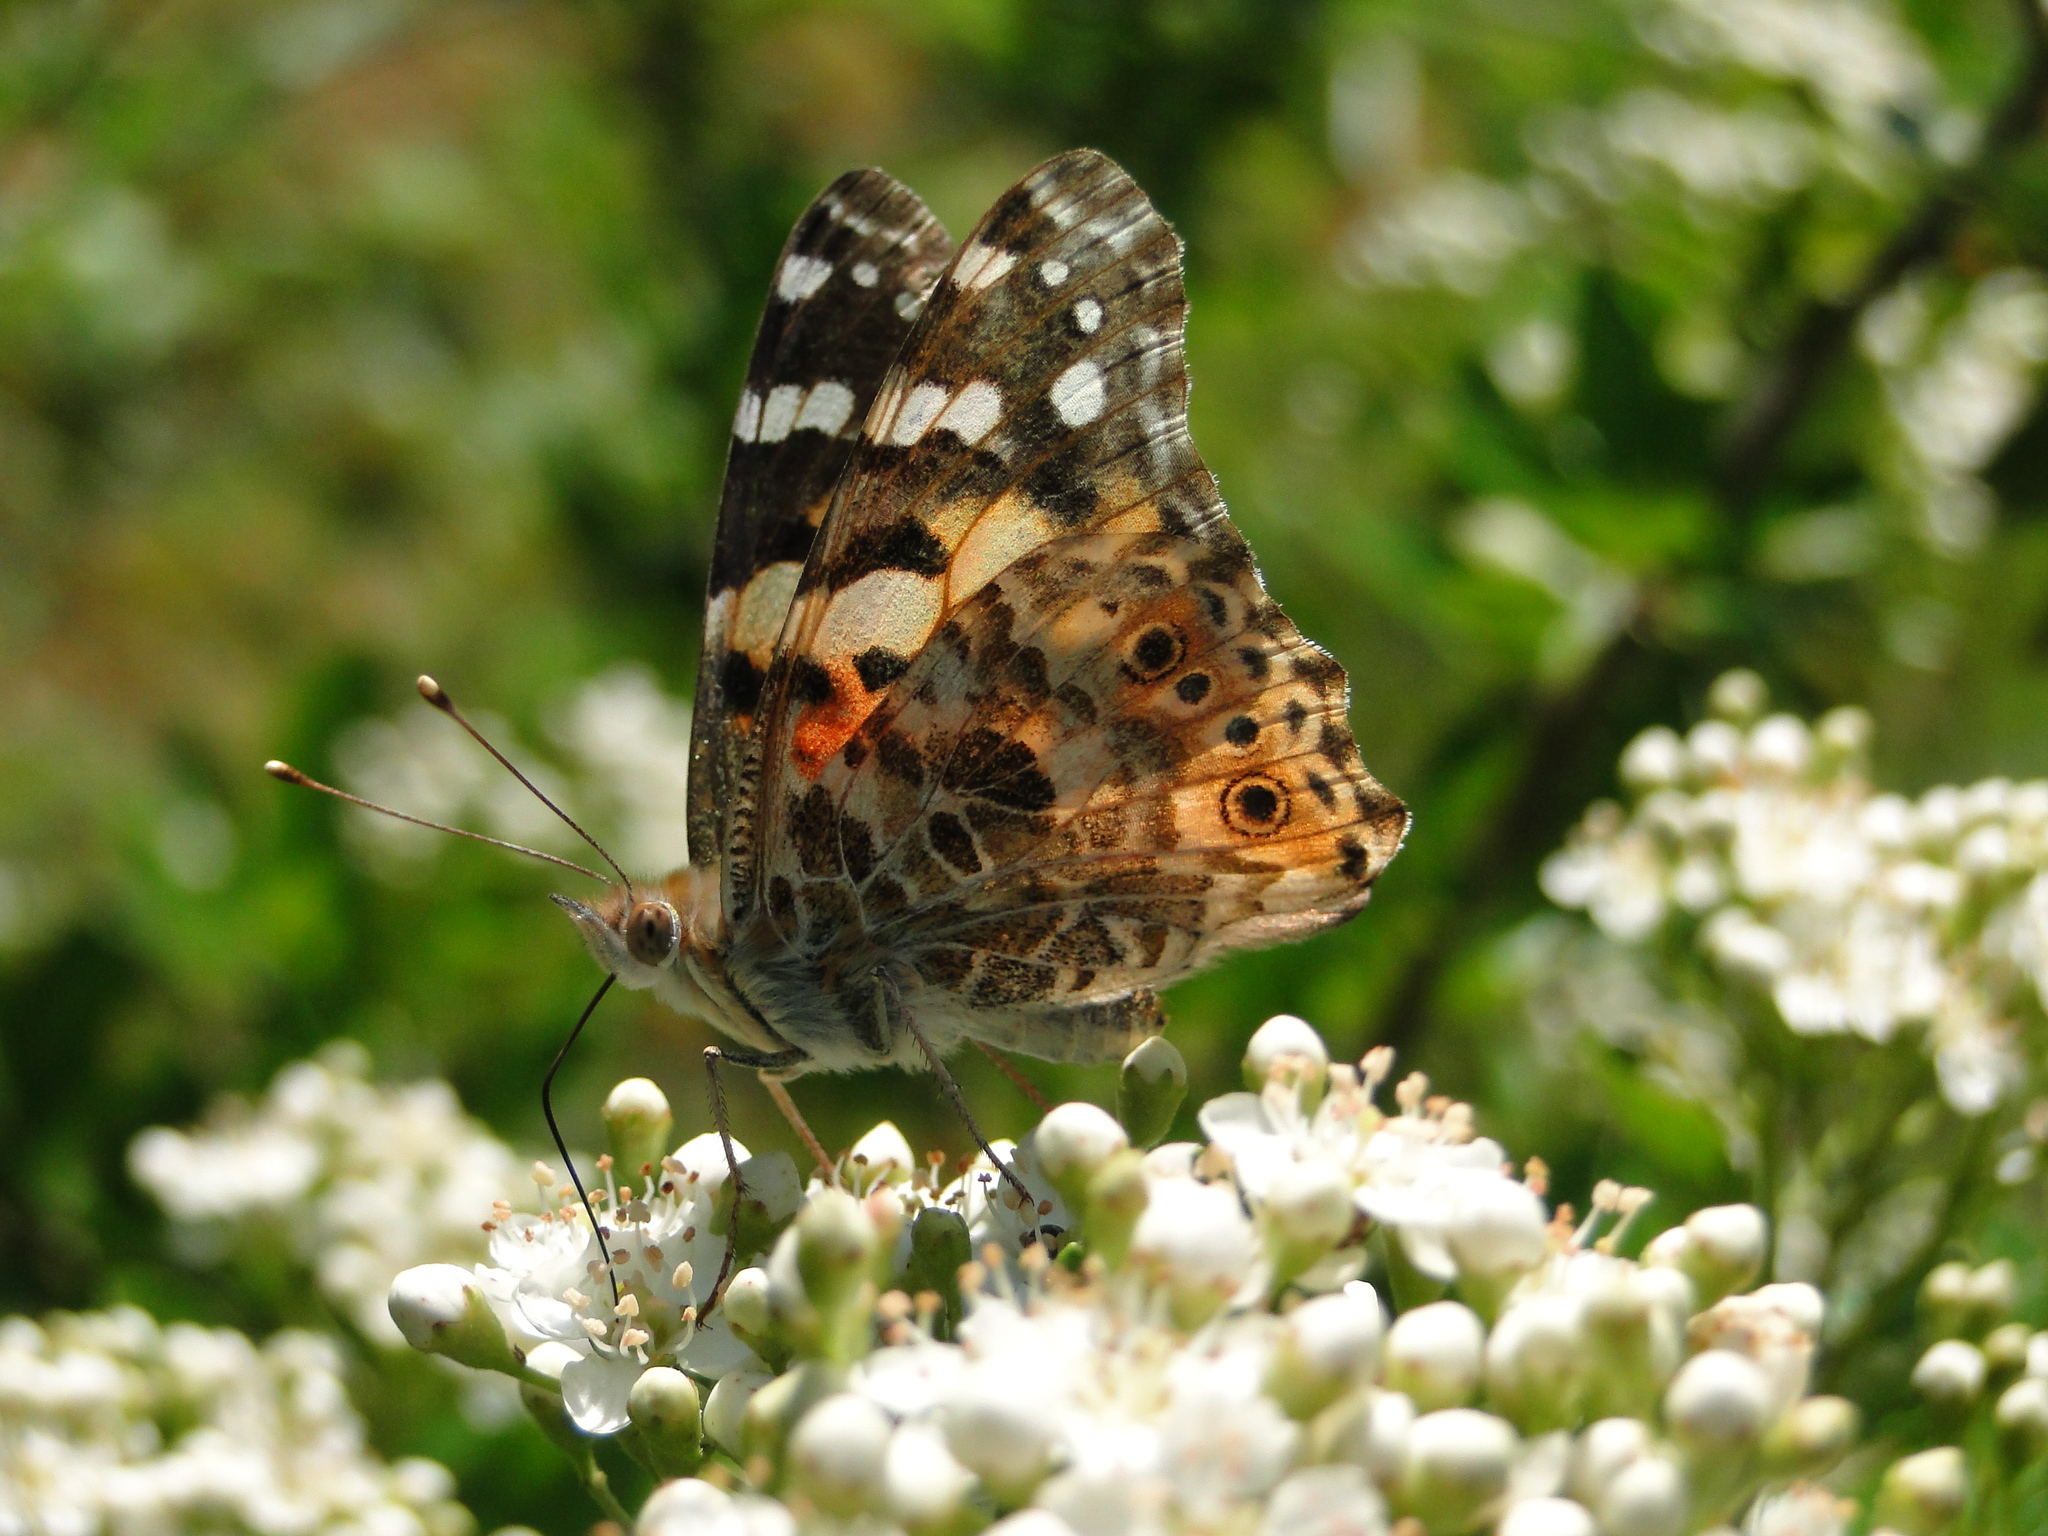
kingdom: Animalia
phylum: Arthropoda
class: Insecta
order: Lepidoptera
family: Nymphalidae
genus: Vanessa
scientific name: Vanessa cardui
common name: Painted lady
